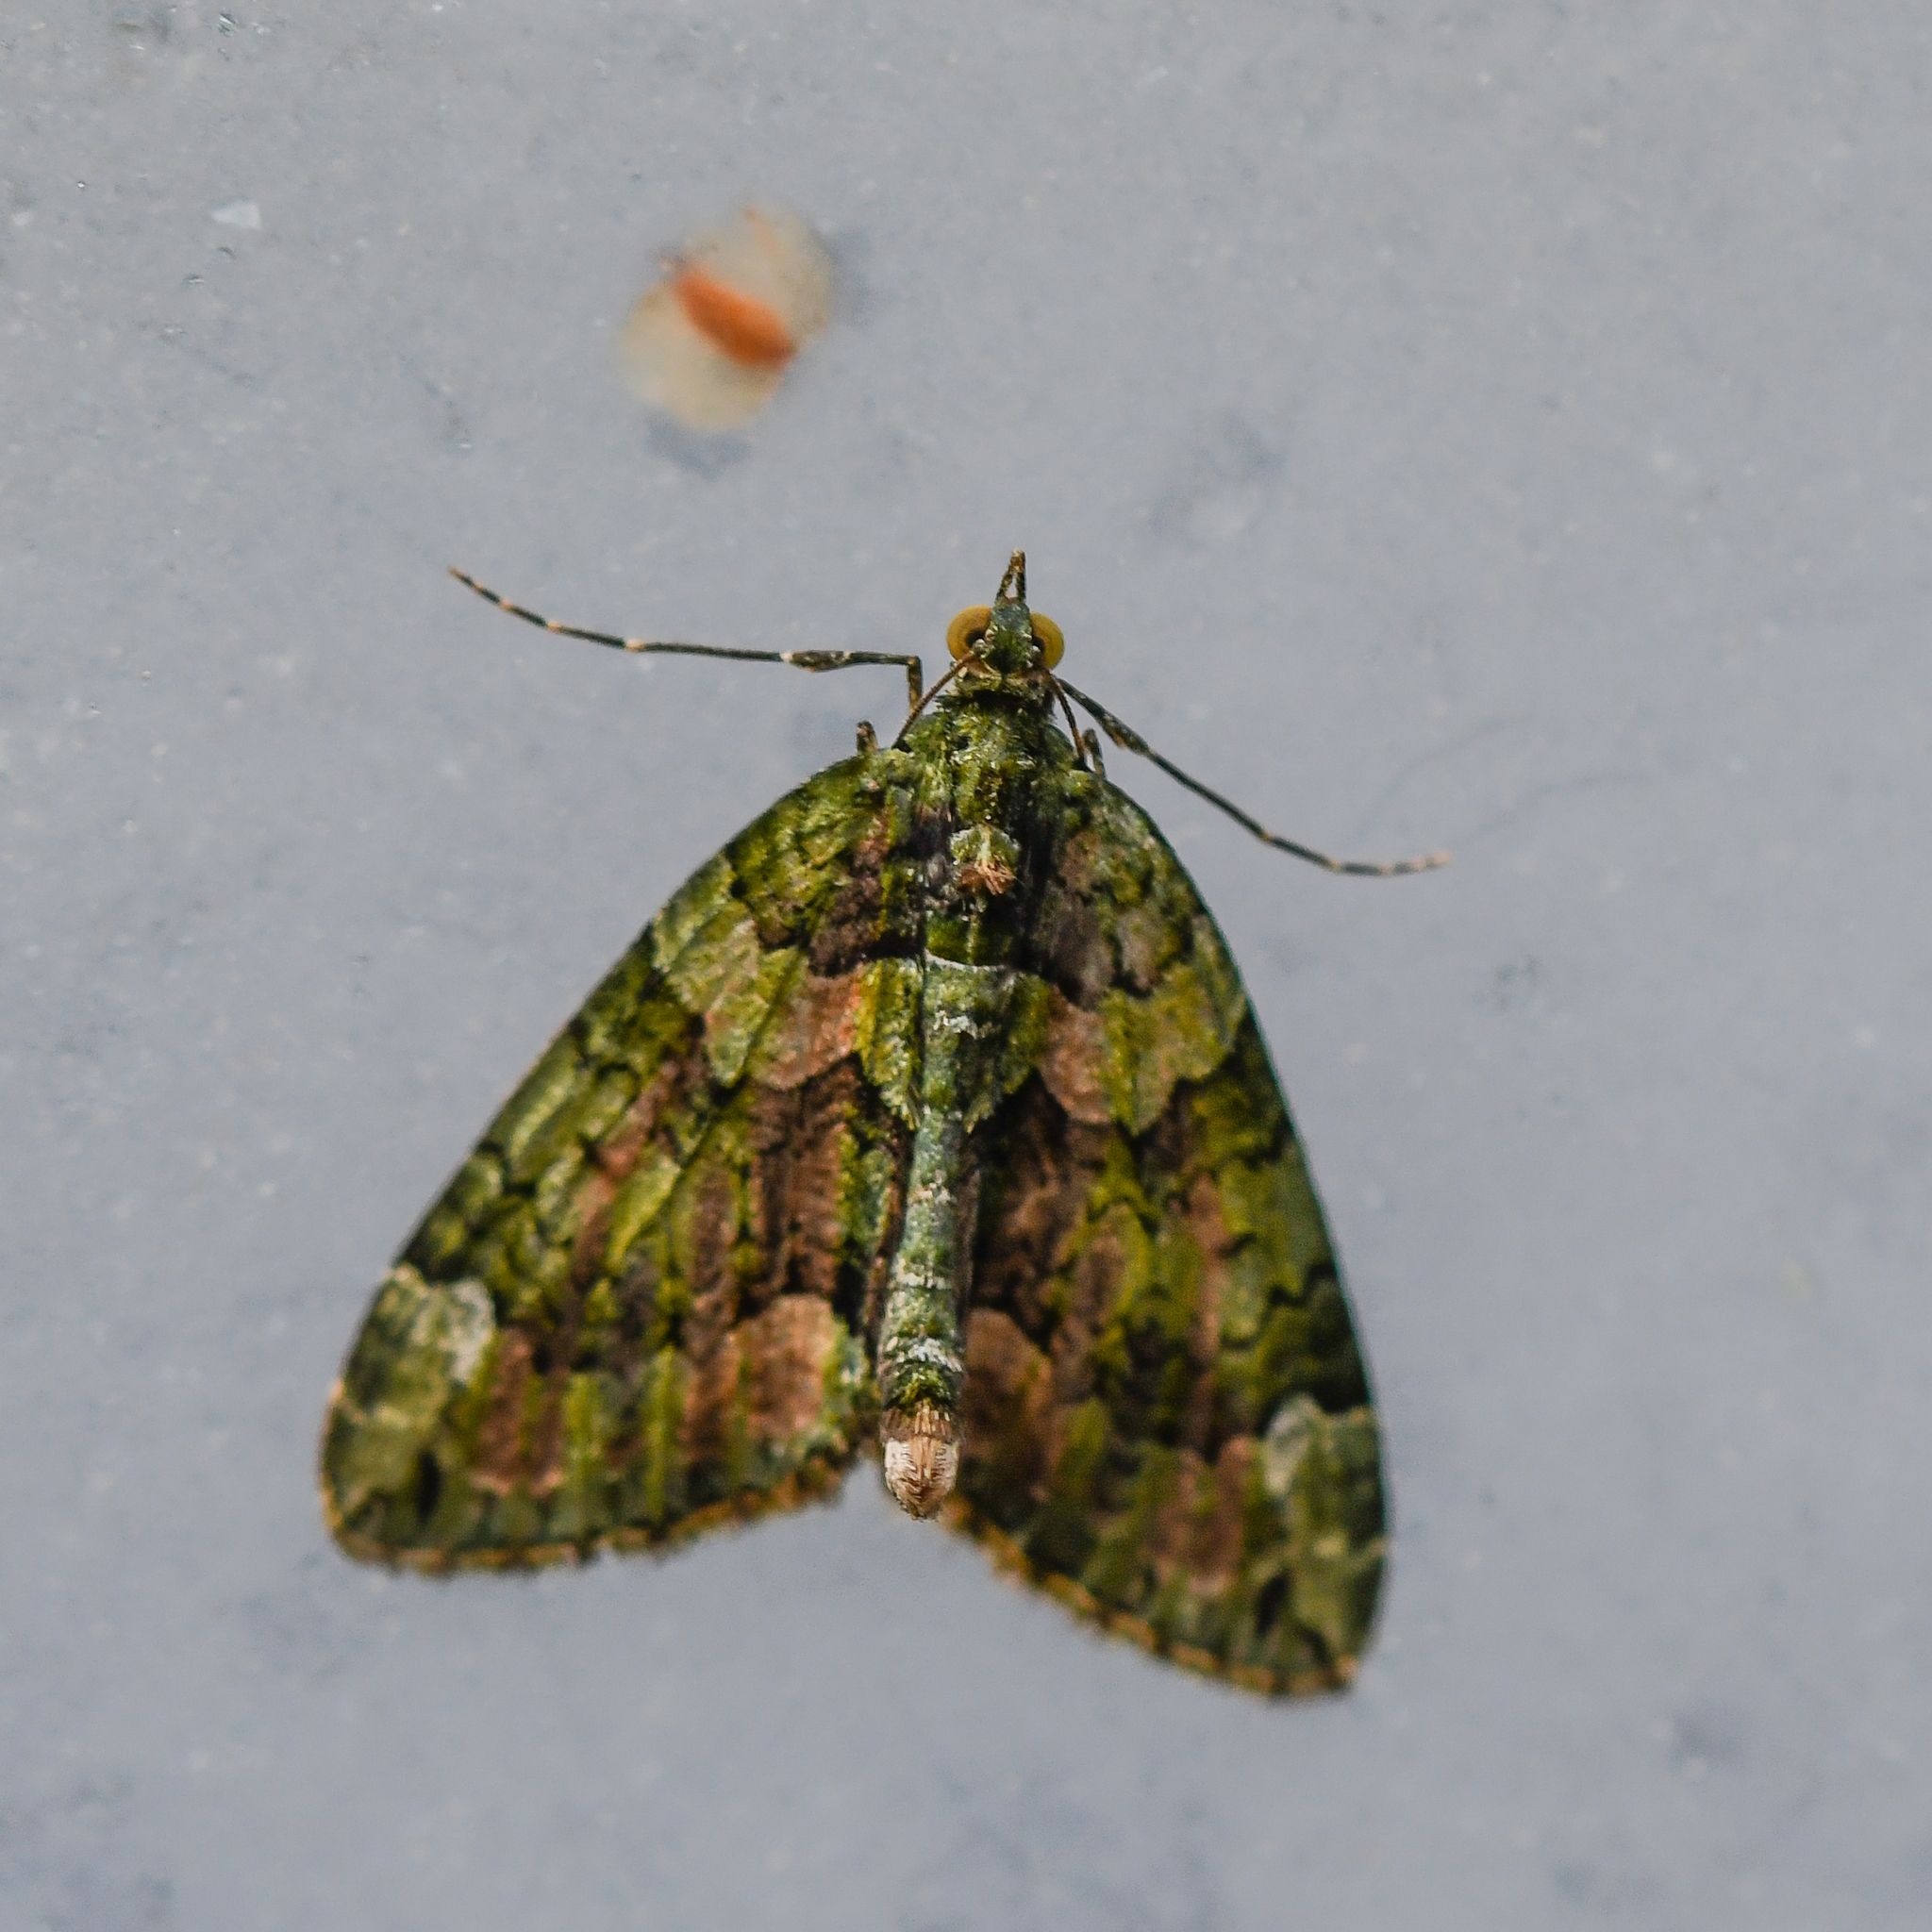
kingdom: Animalia
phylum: Arthropoda
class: Insecta
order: Lepidoptera
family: Geometridae
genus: Chloroclysta
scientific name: Chloroclysta siterata
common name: Red-green carpet
